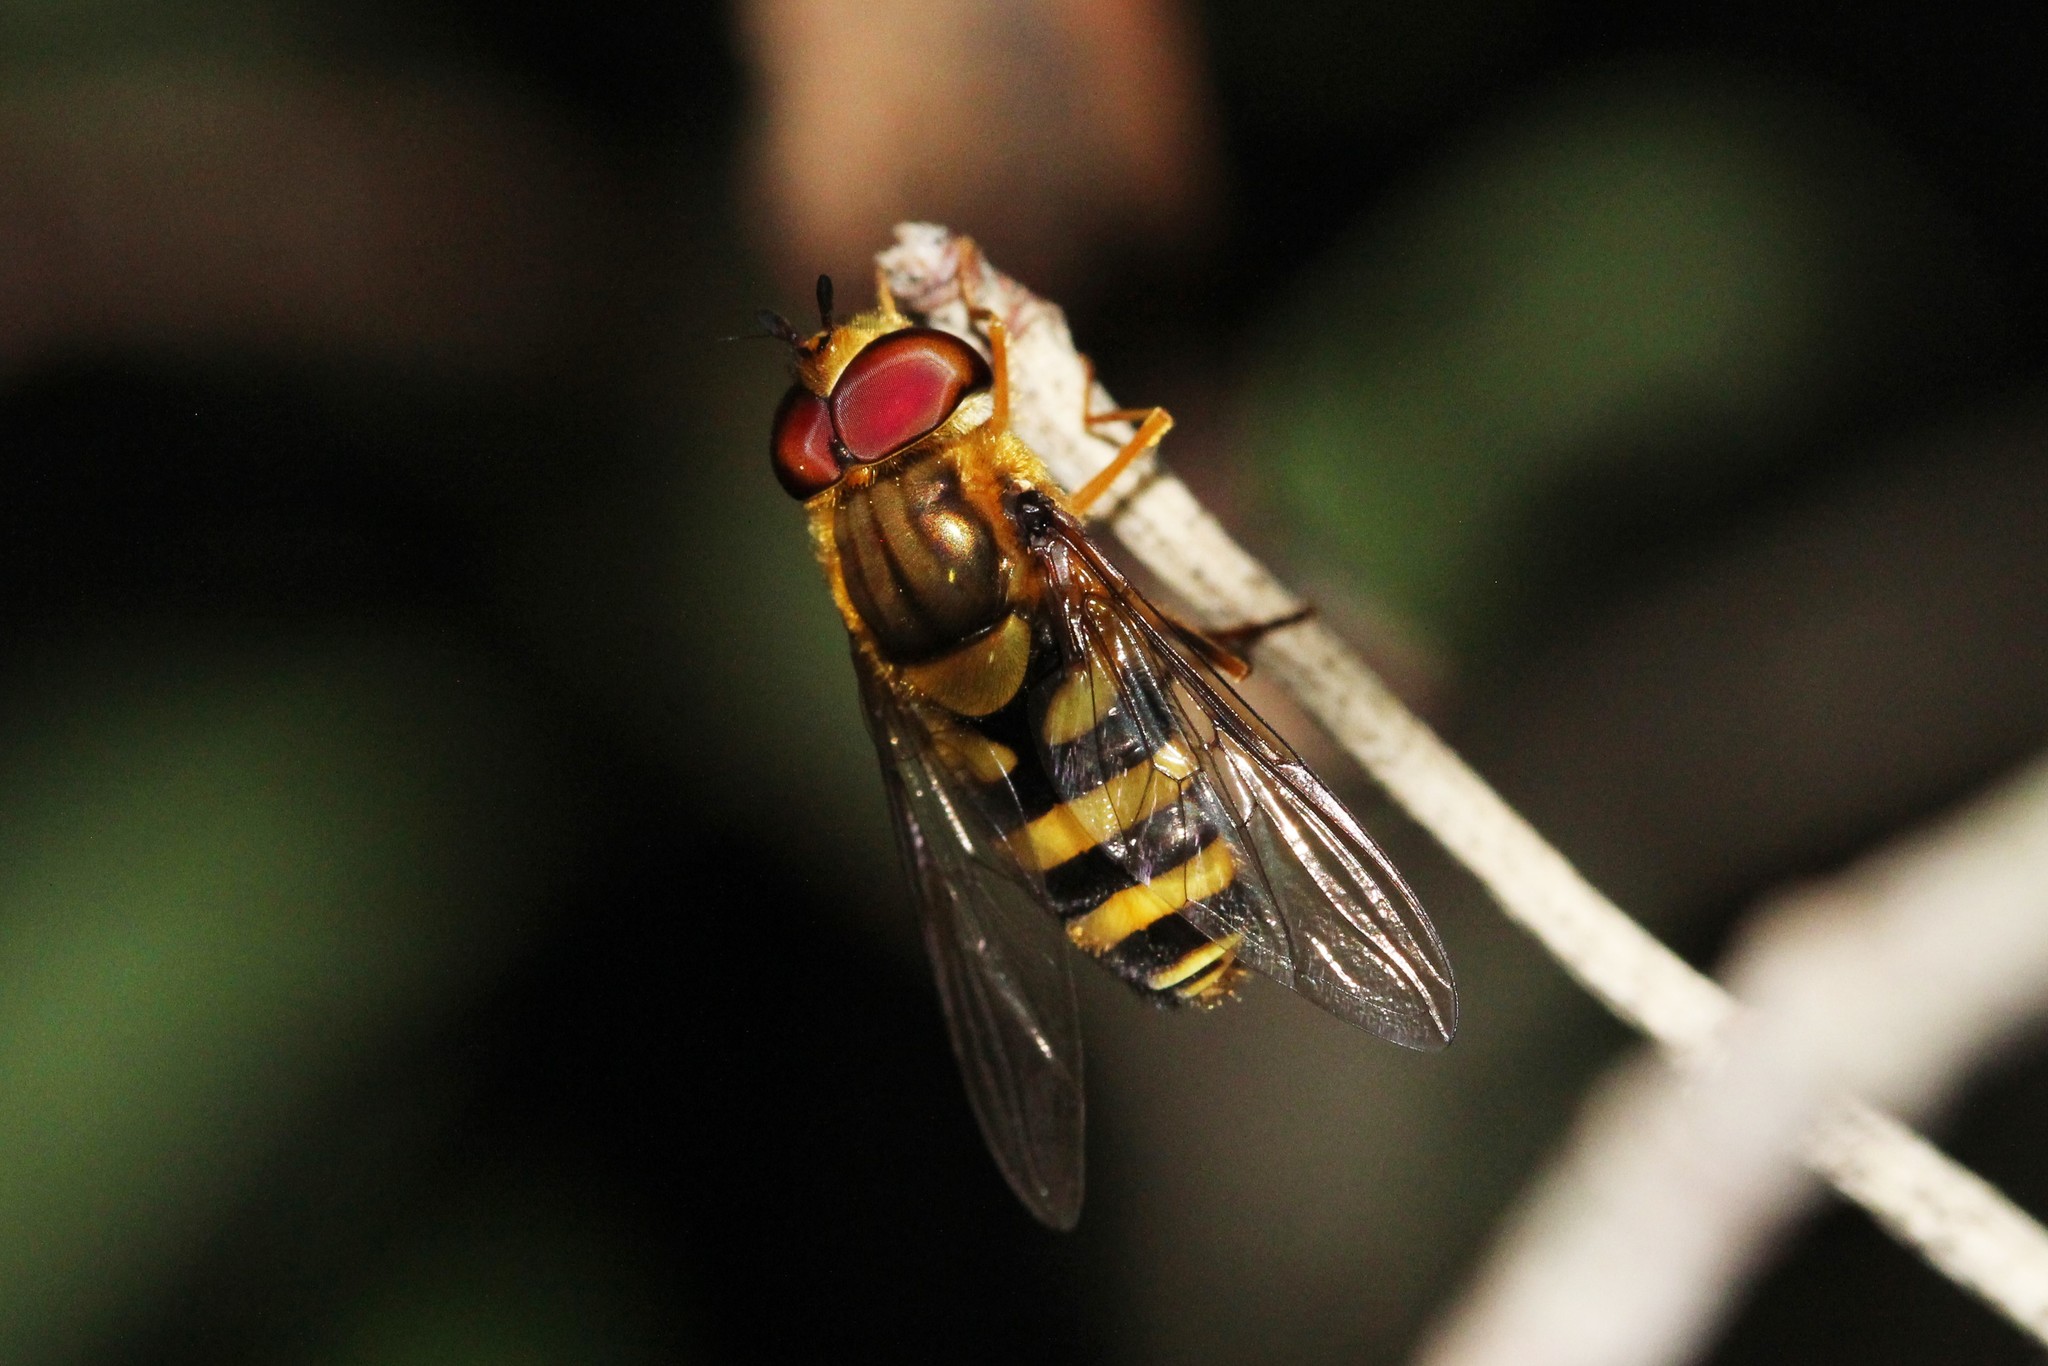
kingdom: Animalia
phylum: Arthropoda
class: Insecta
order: Diptera
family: Syrphidae
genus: Syrphus
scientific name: Syrphus knabi
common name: Eastern flower fly
